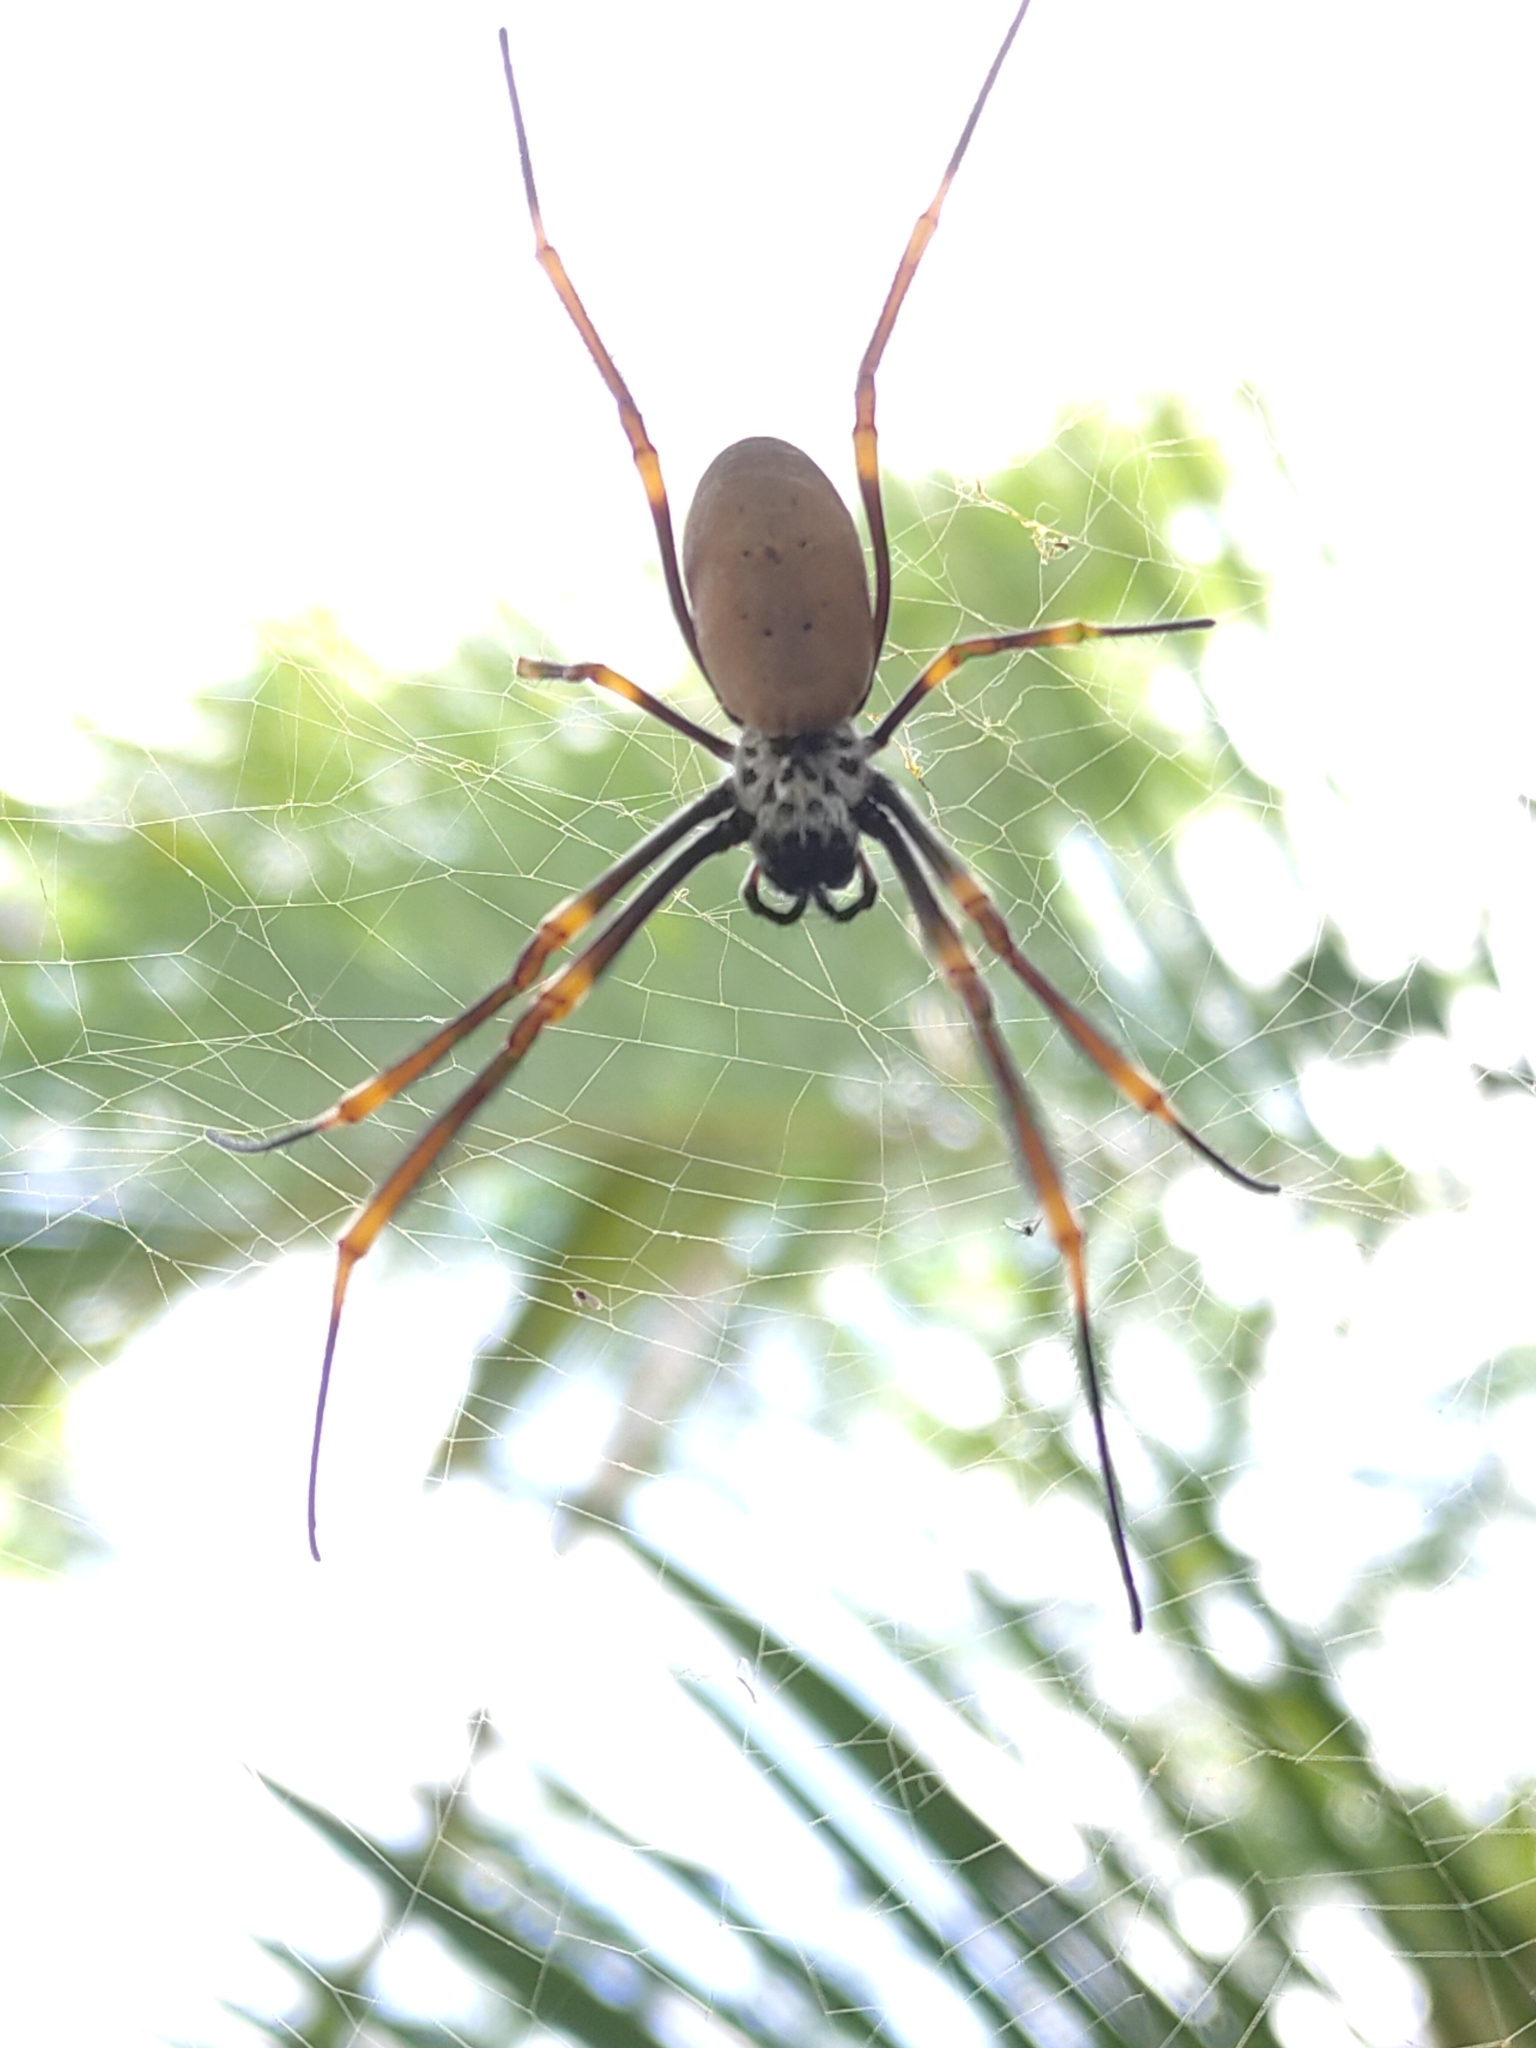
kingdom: Animalia
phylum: Arthropoda
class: Arachnida
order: Araneae
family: Araneidae
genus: Trichonephila
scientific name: Trichonephila plumipes
